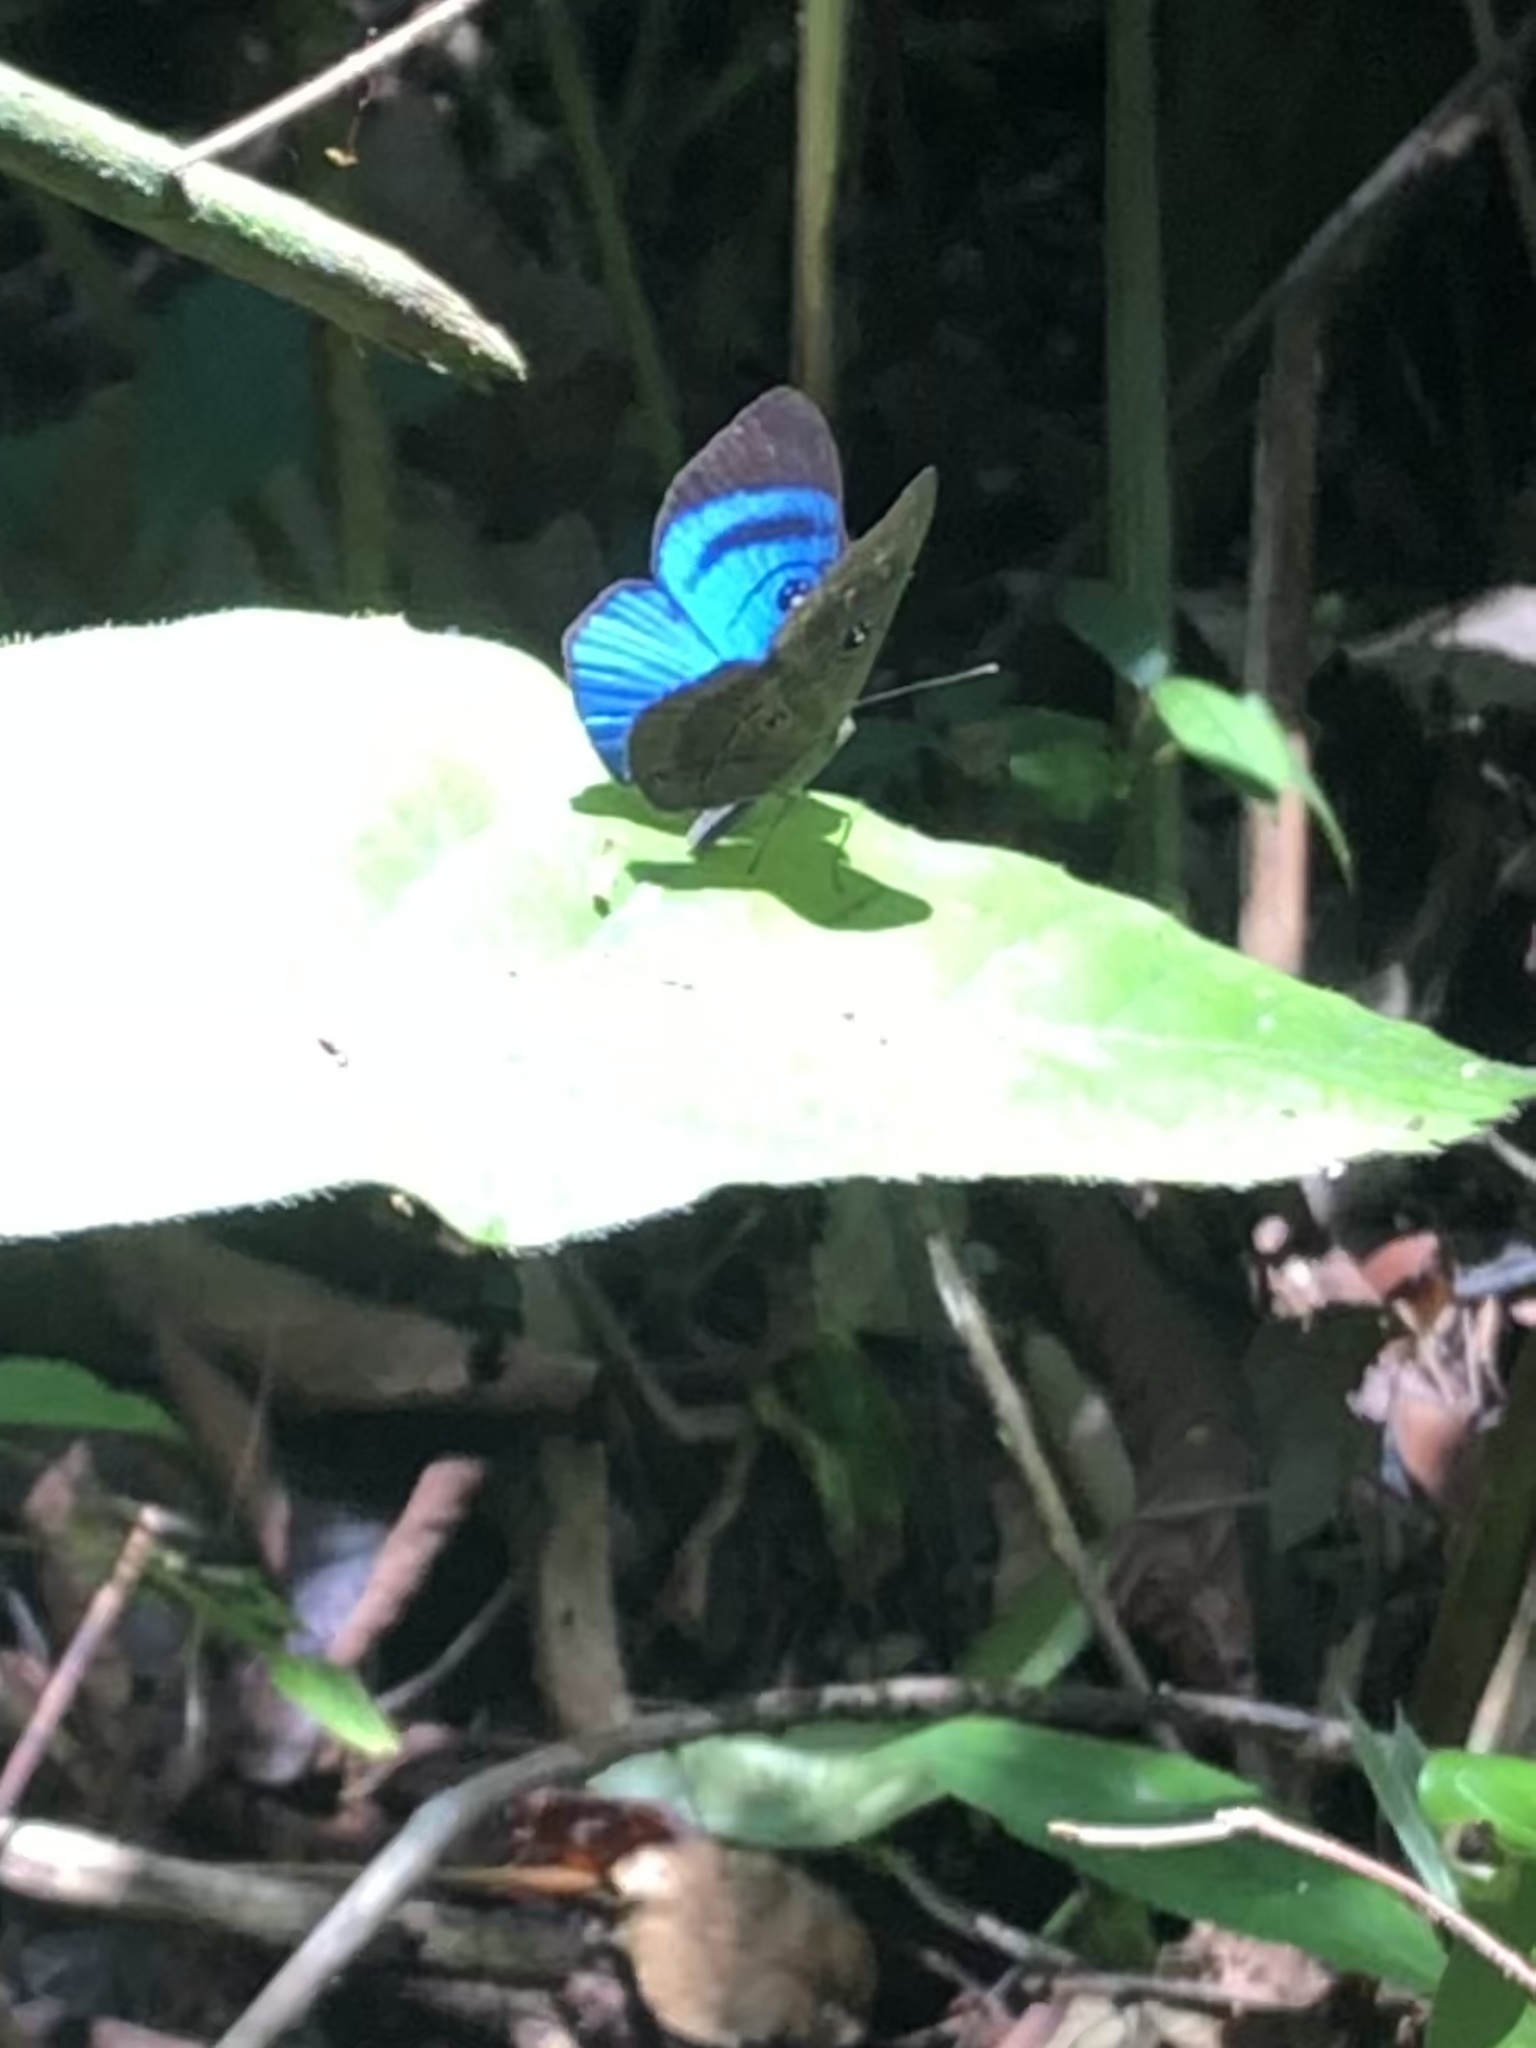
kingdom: Animalia
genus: Mesosemia
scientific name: Mesosemia messeis
